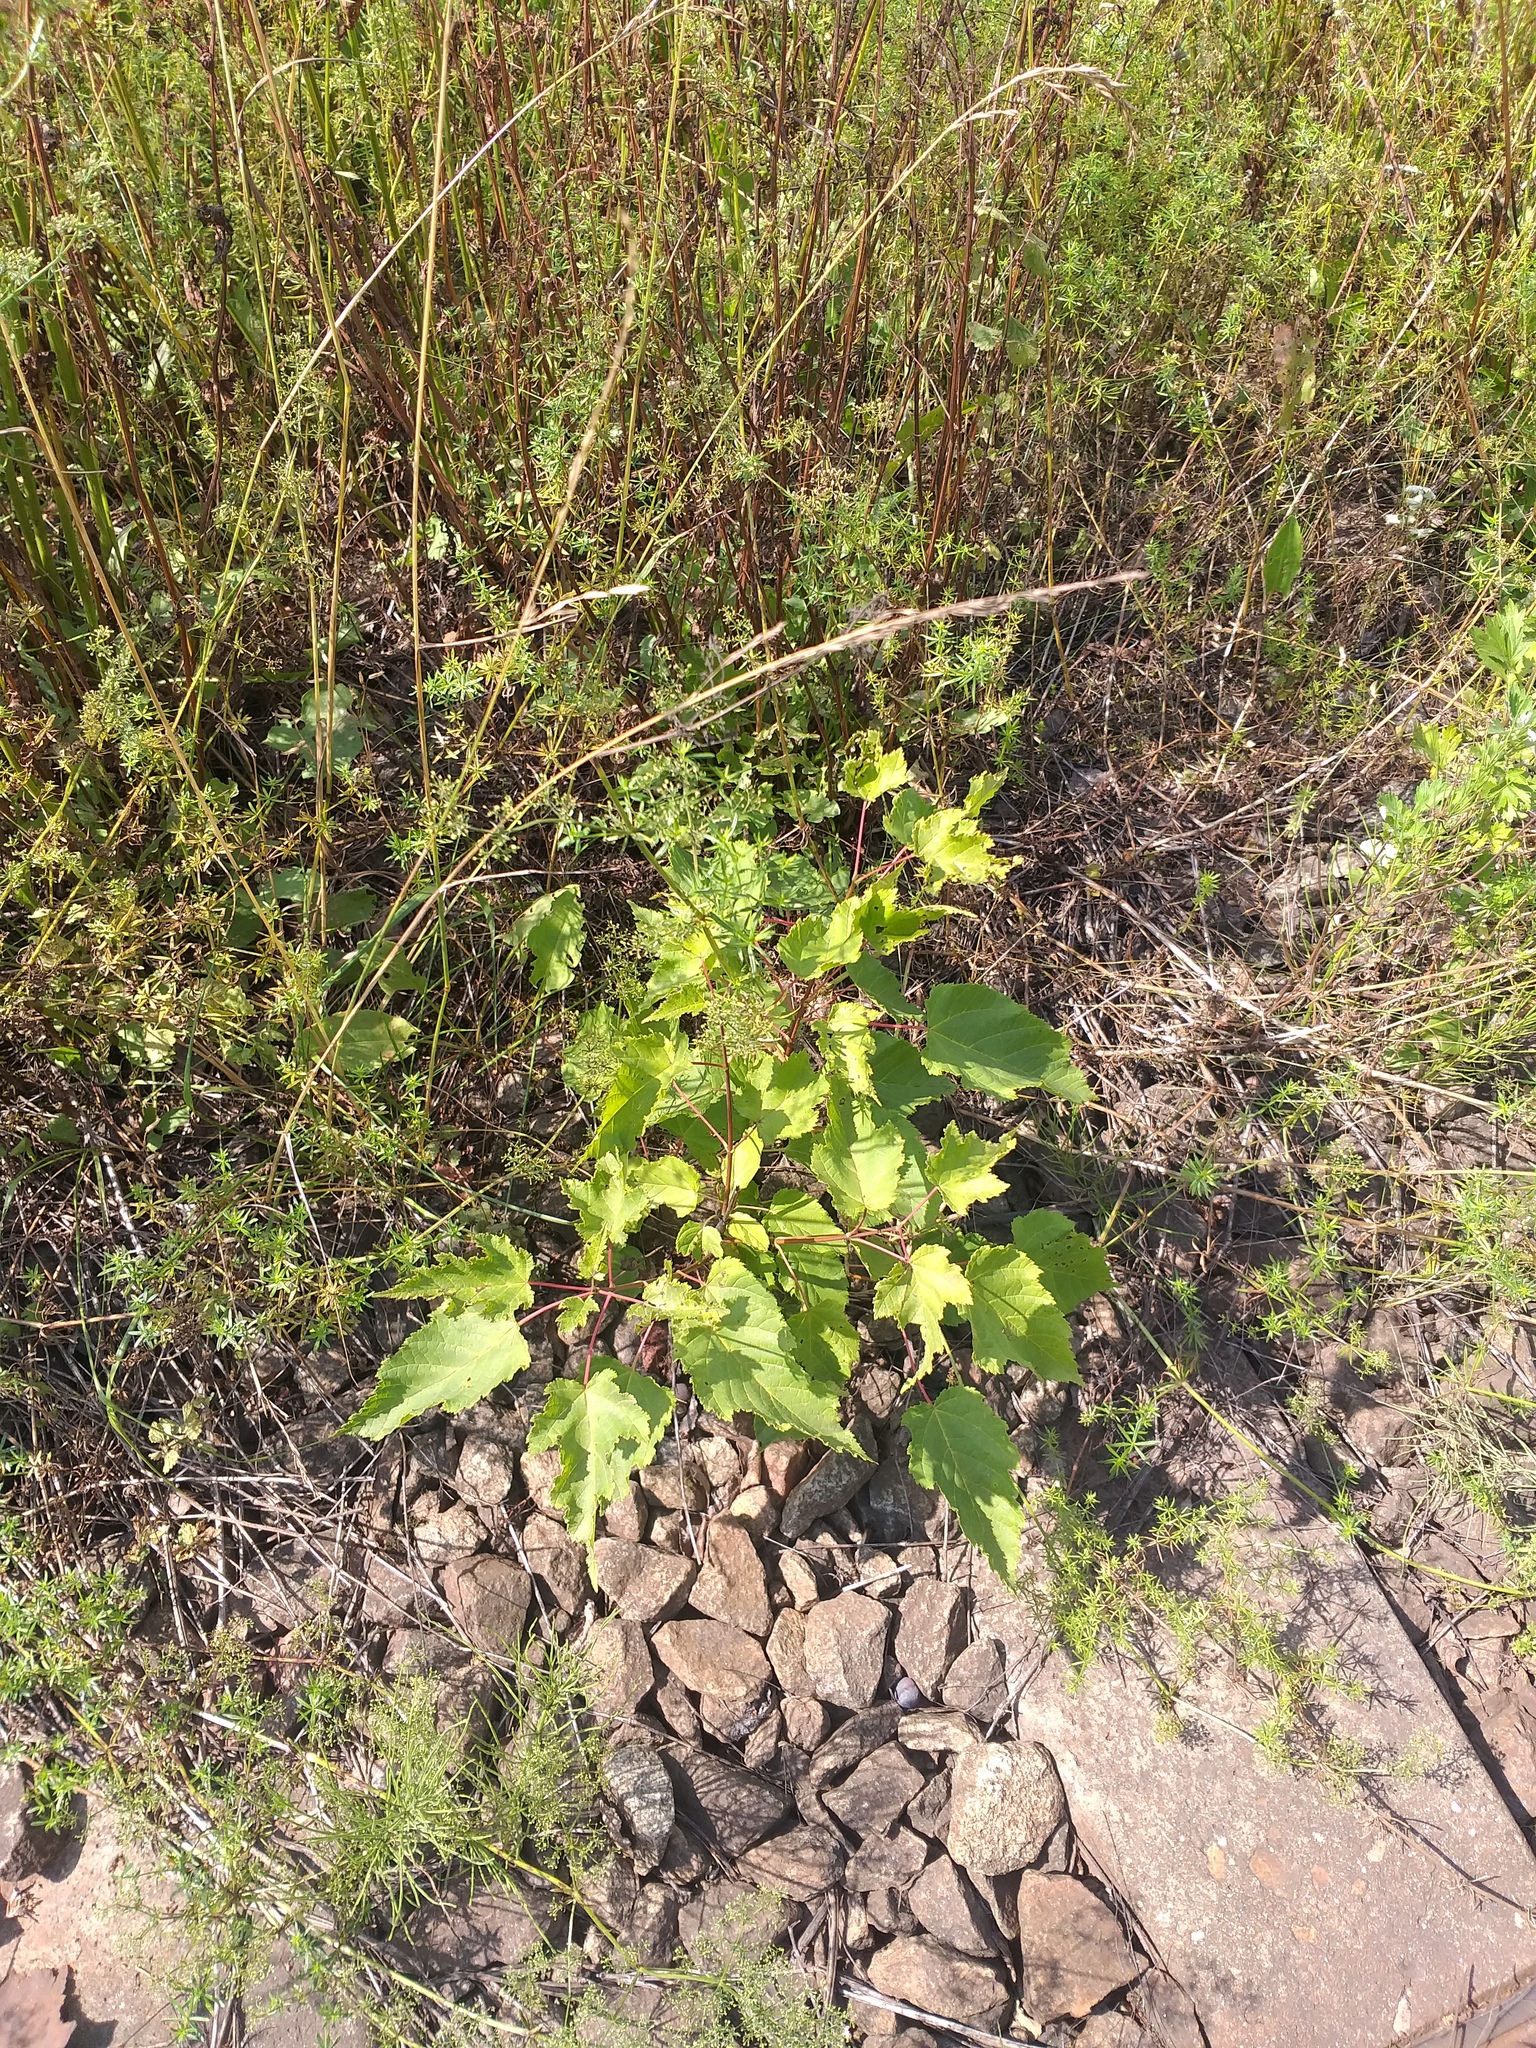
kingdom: Plantae
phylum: Tracheophyta
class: Magnoliopsida
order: Sapindales
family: Sapindaceae
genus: Acer
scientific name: Acer tataricum
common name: Tartar maple
